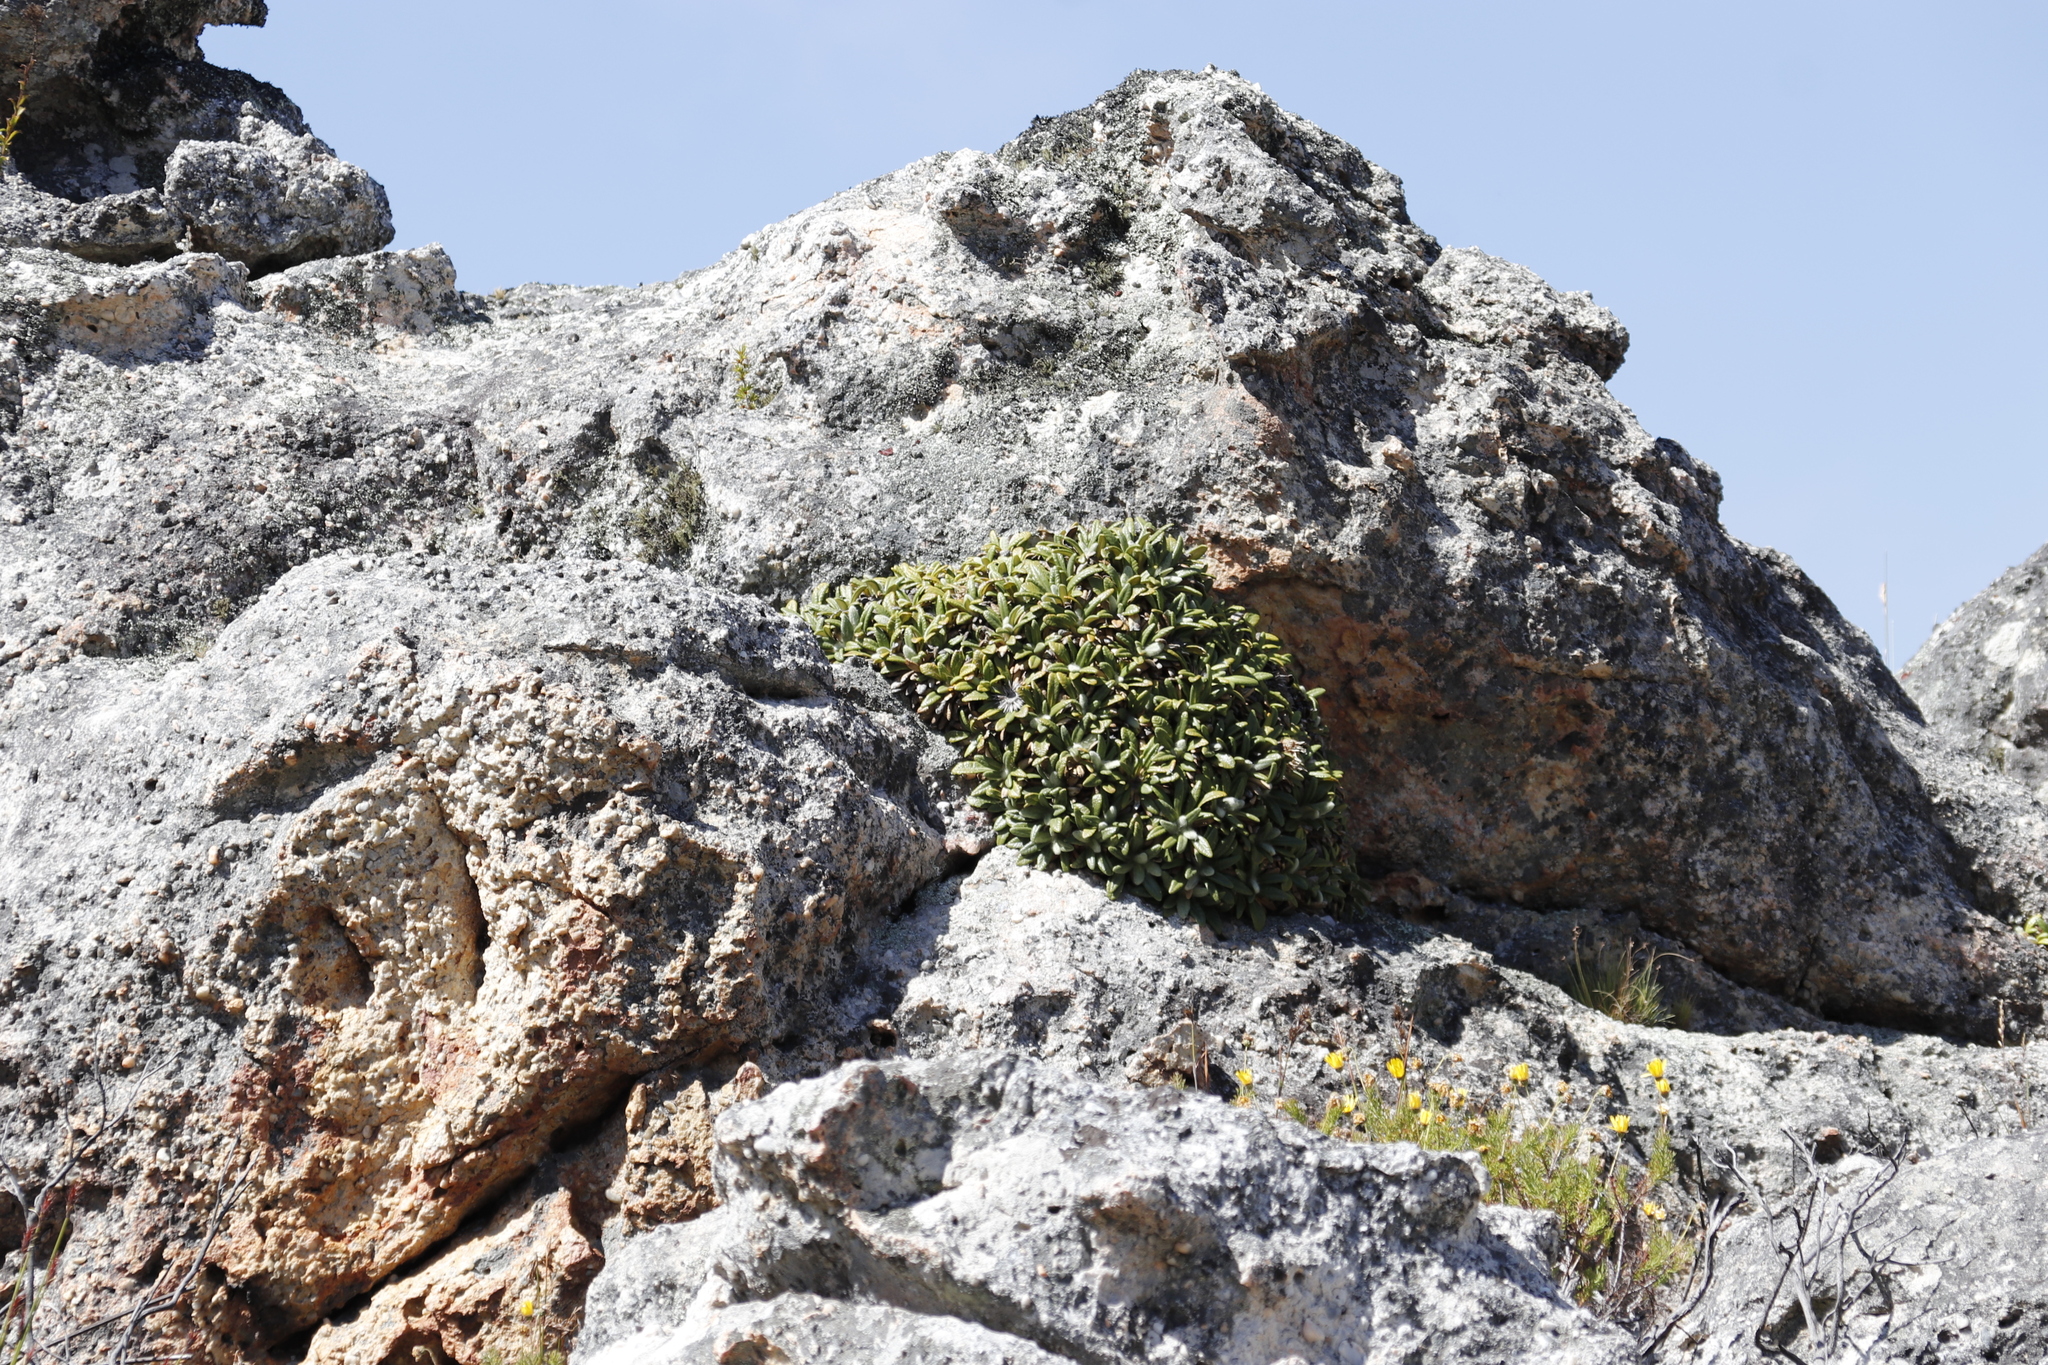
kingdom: Plantae
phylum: Tracheophyta
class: Magnoliopsida
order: Asterales
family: Asteraceae
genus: Oldenburgia
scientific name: Oldenburgia paradoxa
